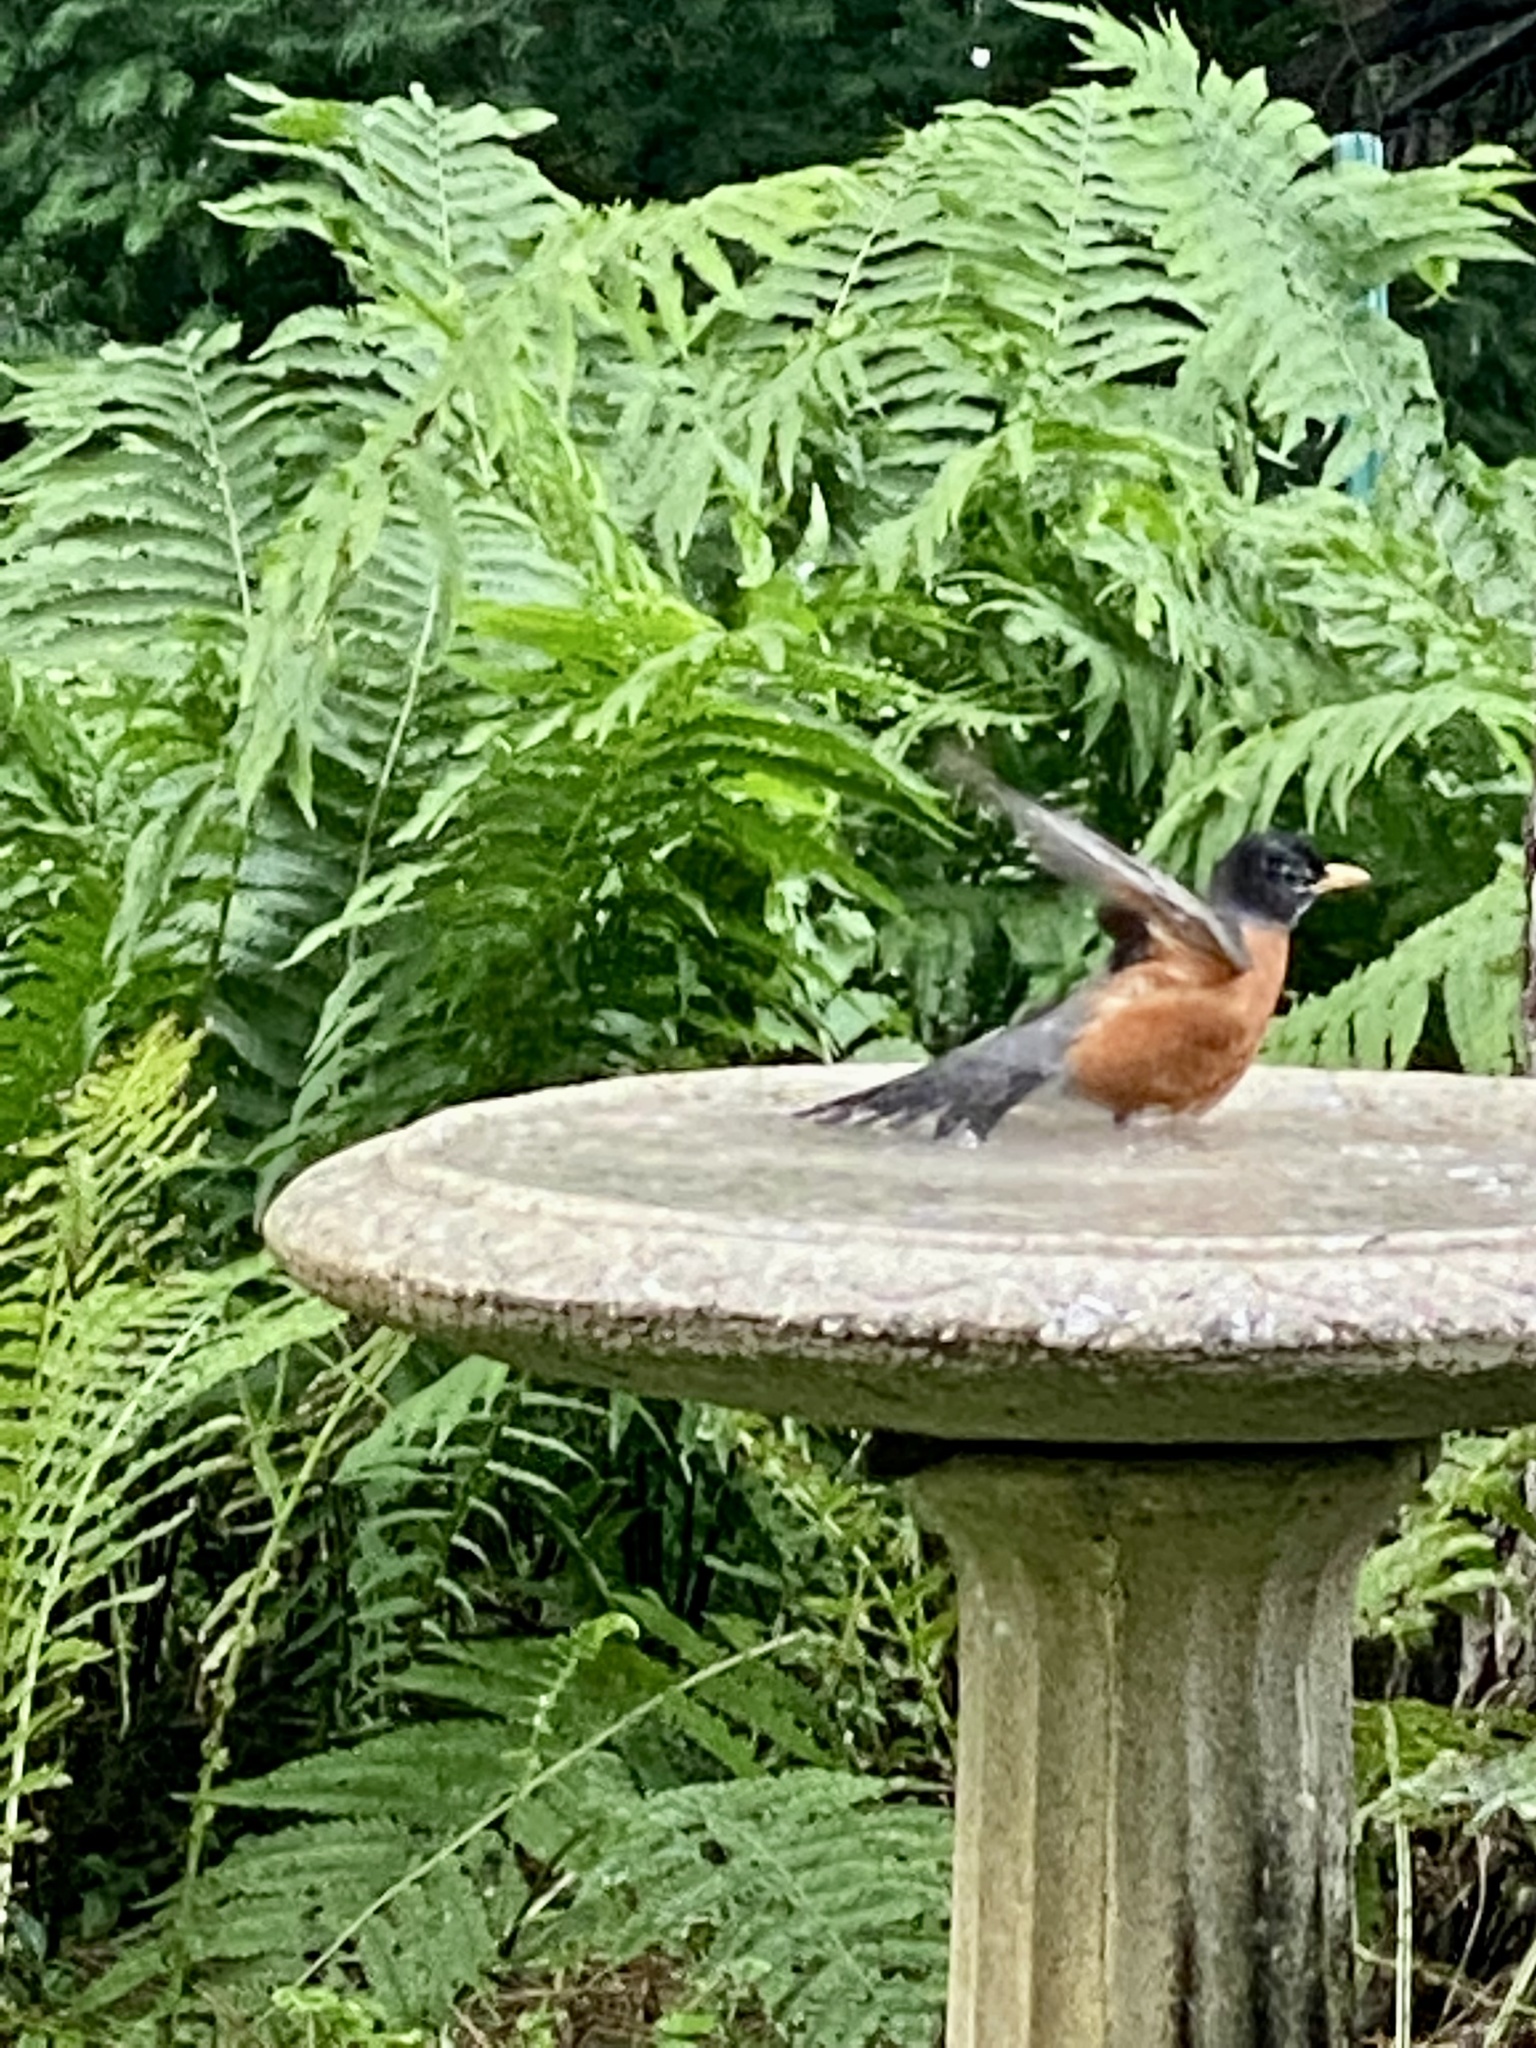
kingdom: Animalia
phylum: Chordata
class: Aves
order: Passeriformes
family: Turdidae
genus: Turdus
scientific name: Turdus migratorius
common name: American robin
